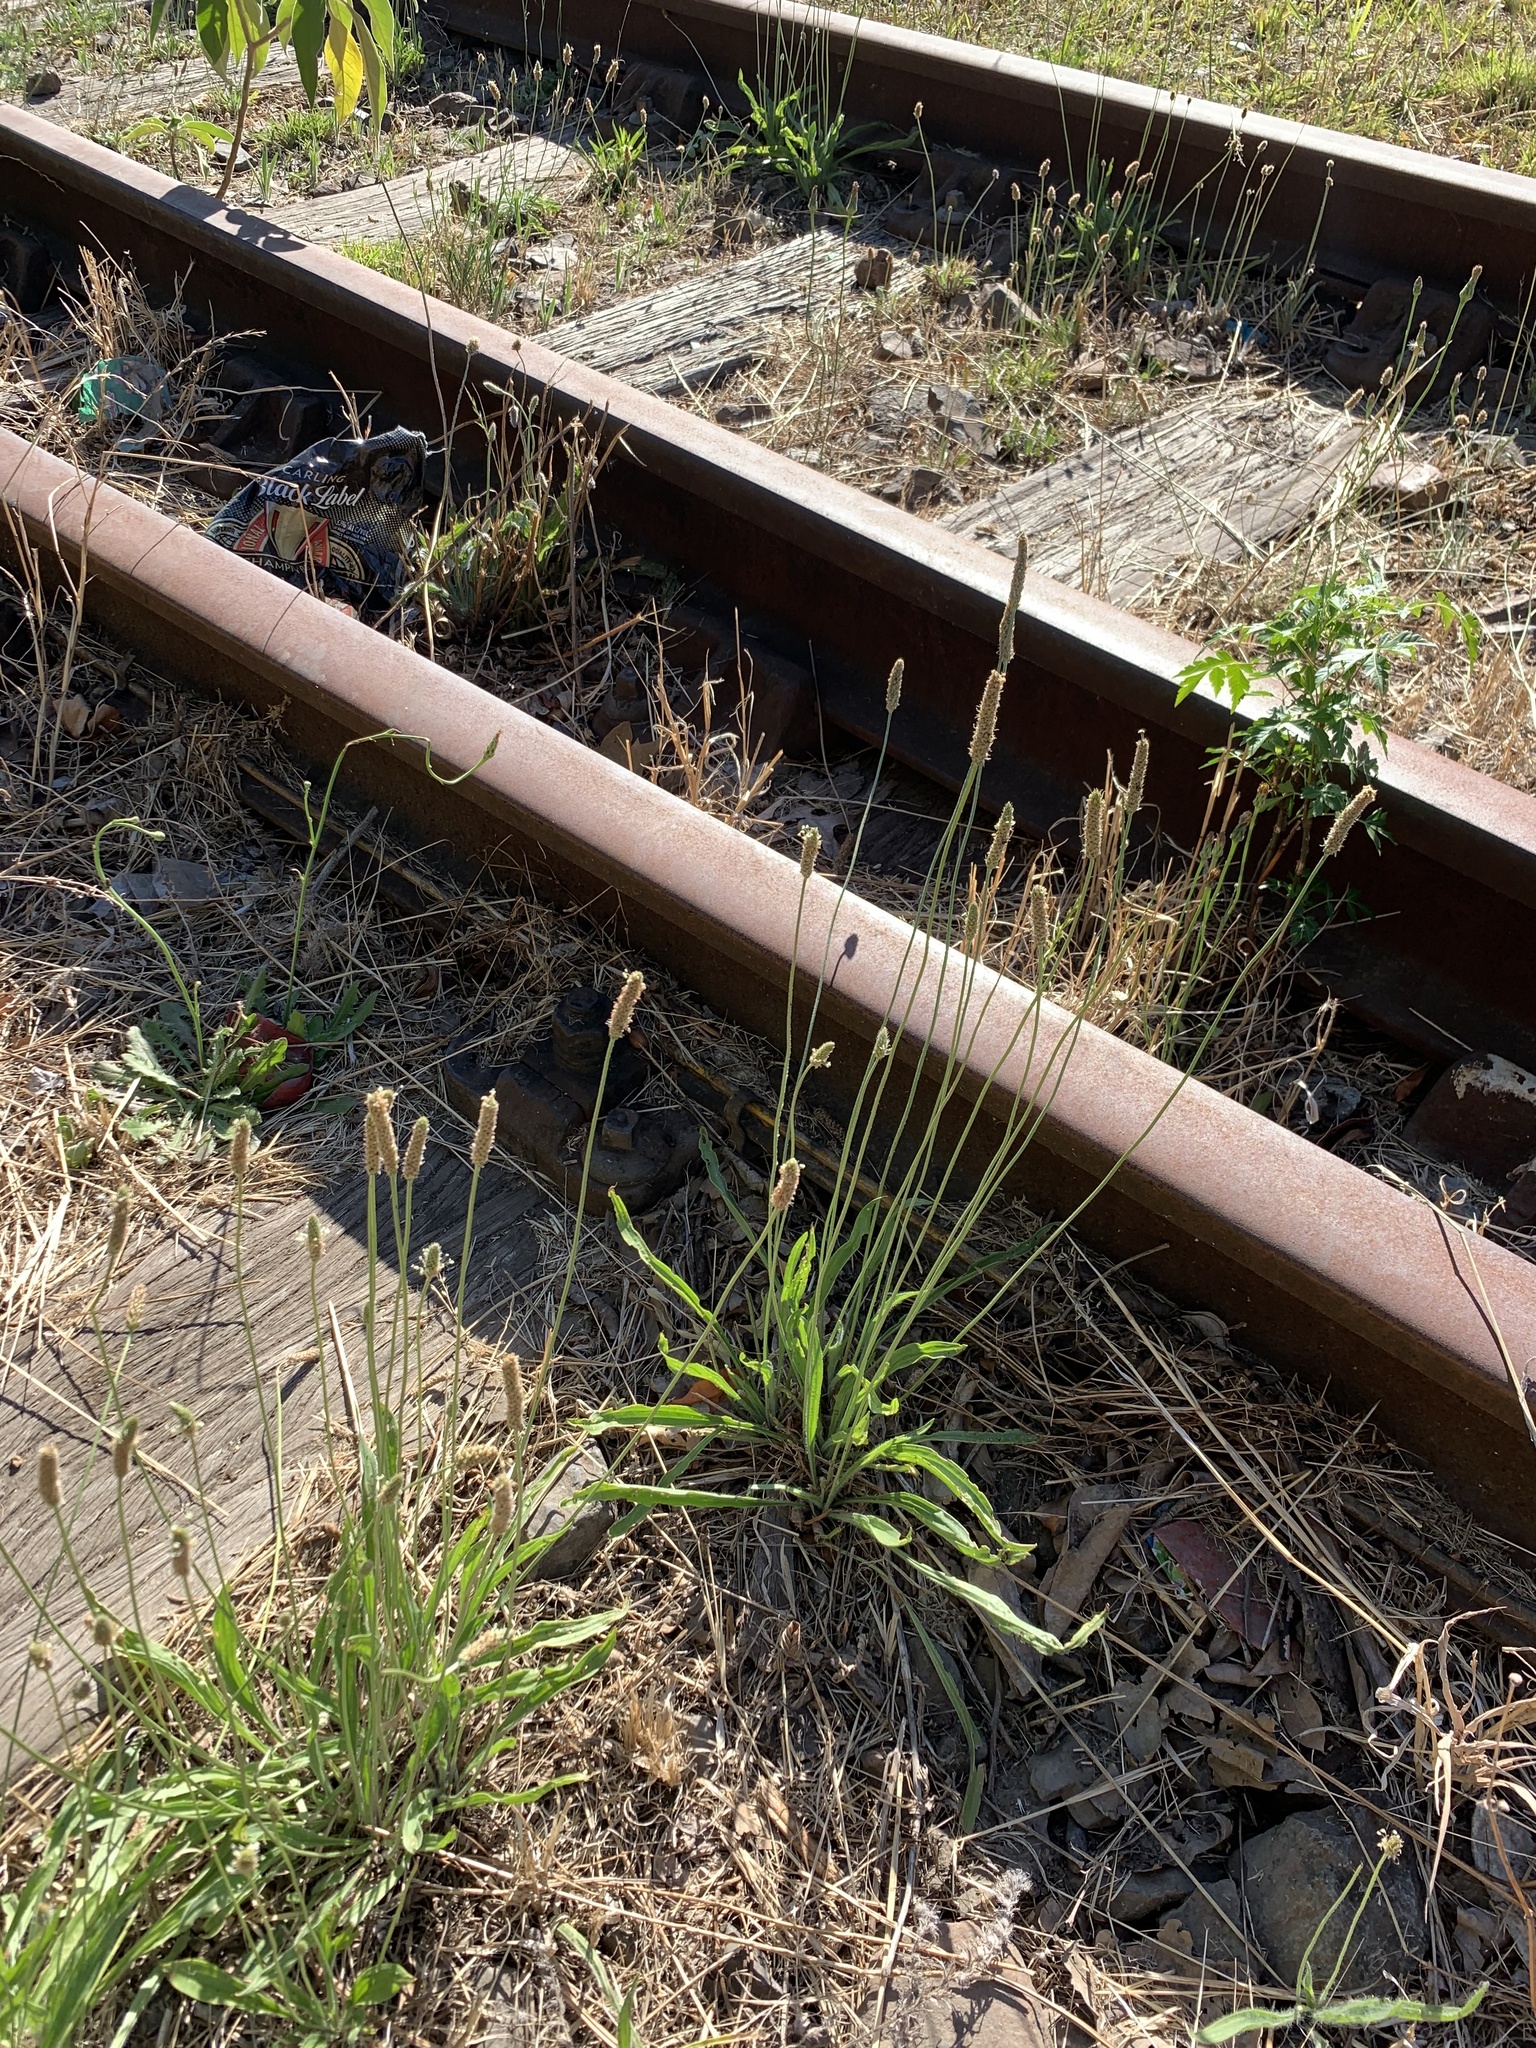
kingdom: Plantae
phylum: Tracheophyta
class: Magnoliopsida
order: Lamiales
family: Plantaginaceae
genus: Plantago
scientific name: Plantago lanceolata
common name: Ribwort plantain
